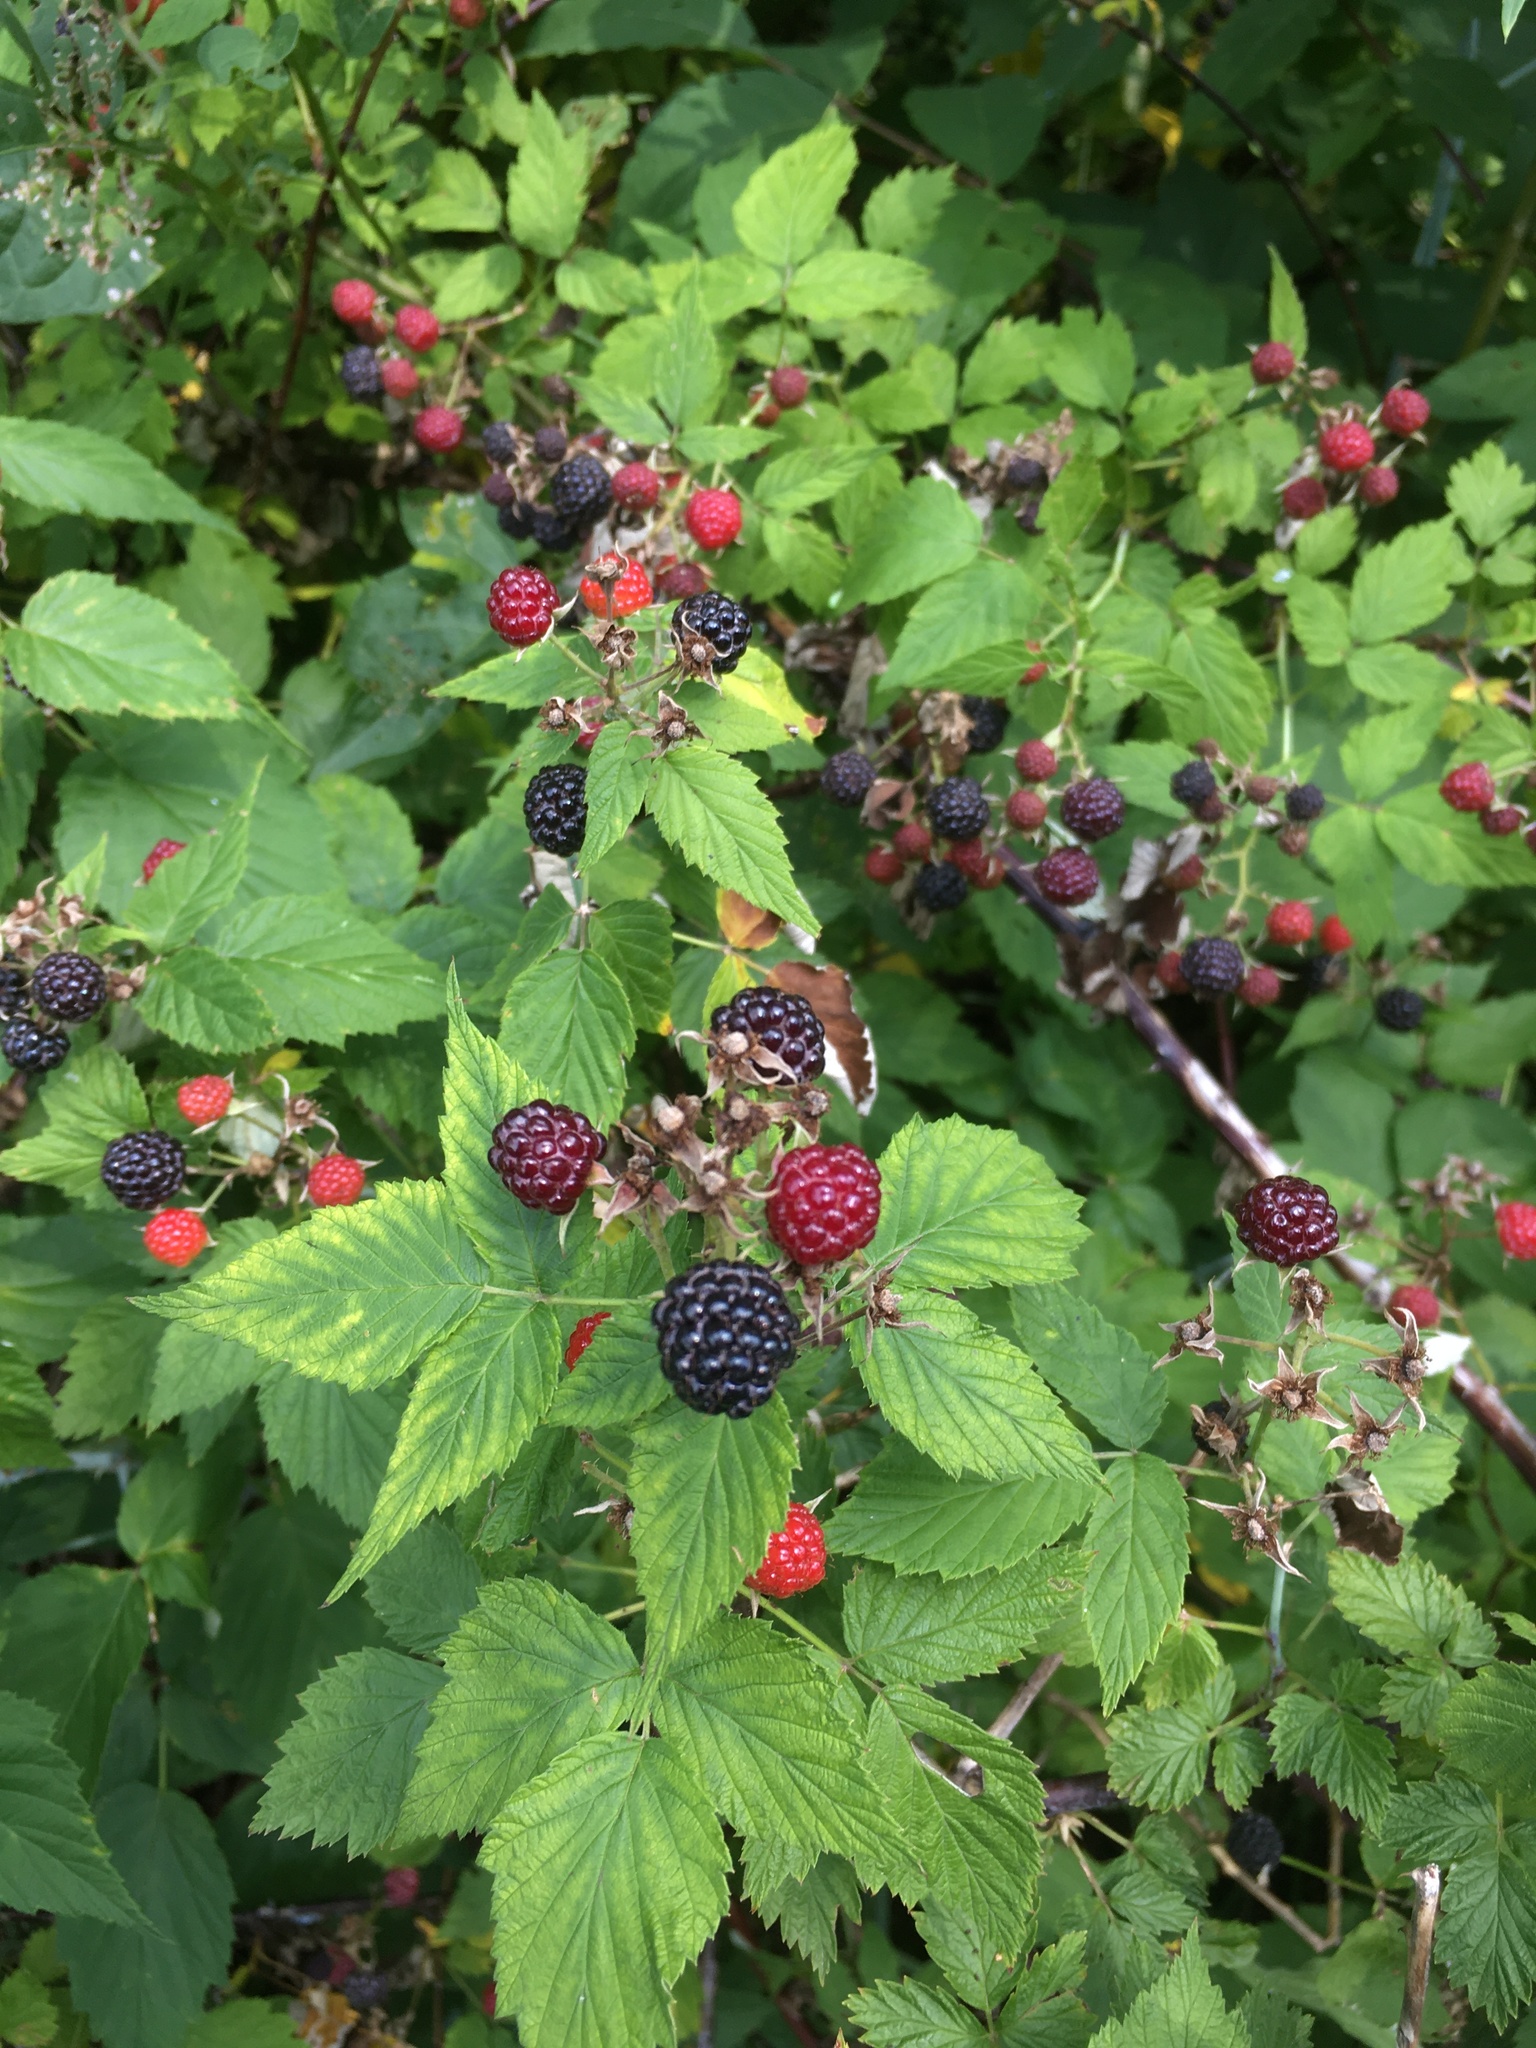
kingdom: Plantae
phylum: Tracheophyta
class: Magnoliopsida
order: Rosales
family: Rosaceae
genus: Rubus
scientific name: Rubus occidentalis
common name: Black raspberry
